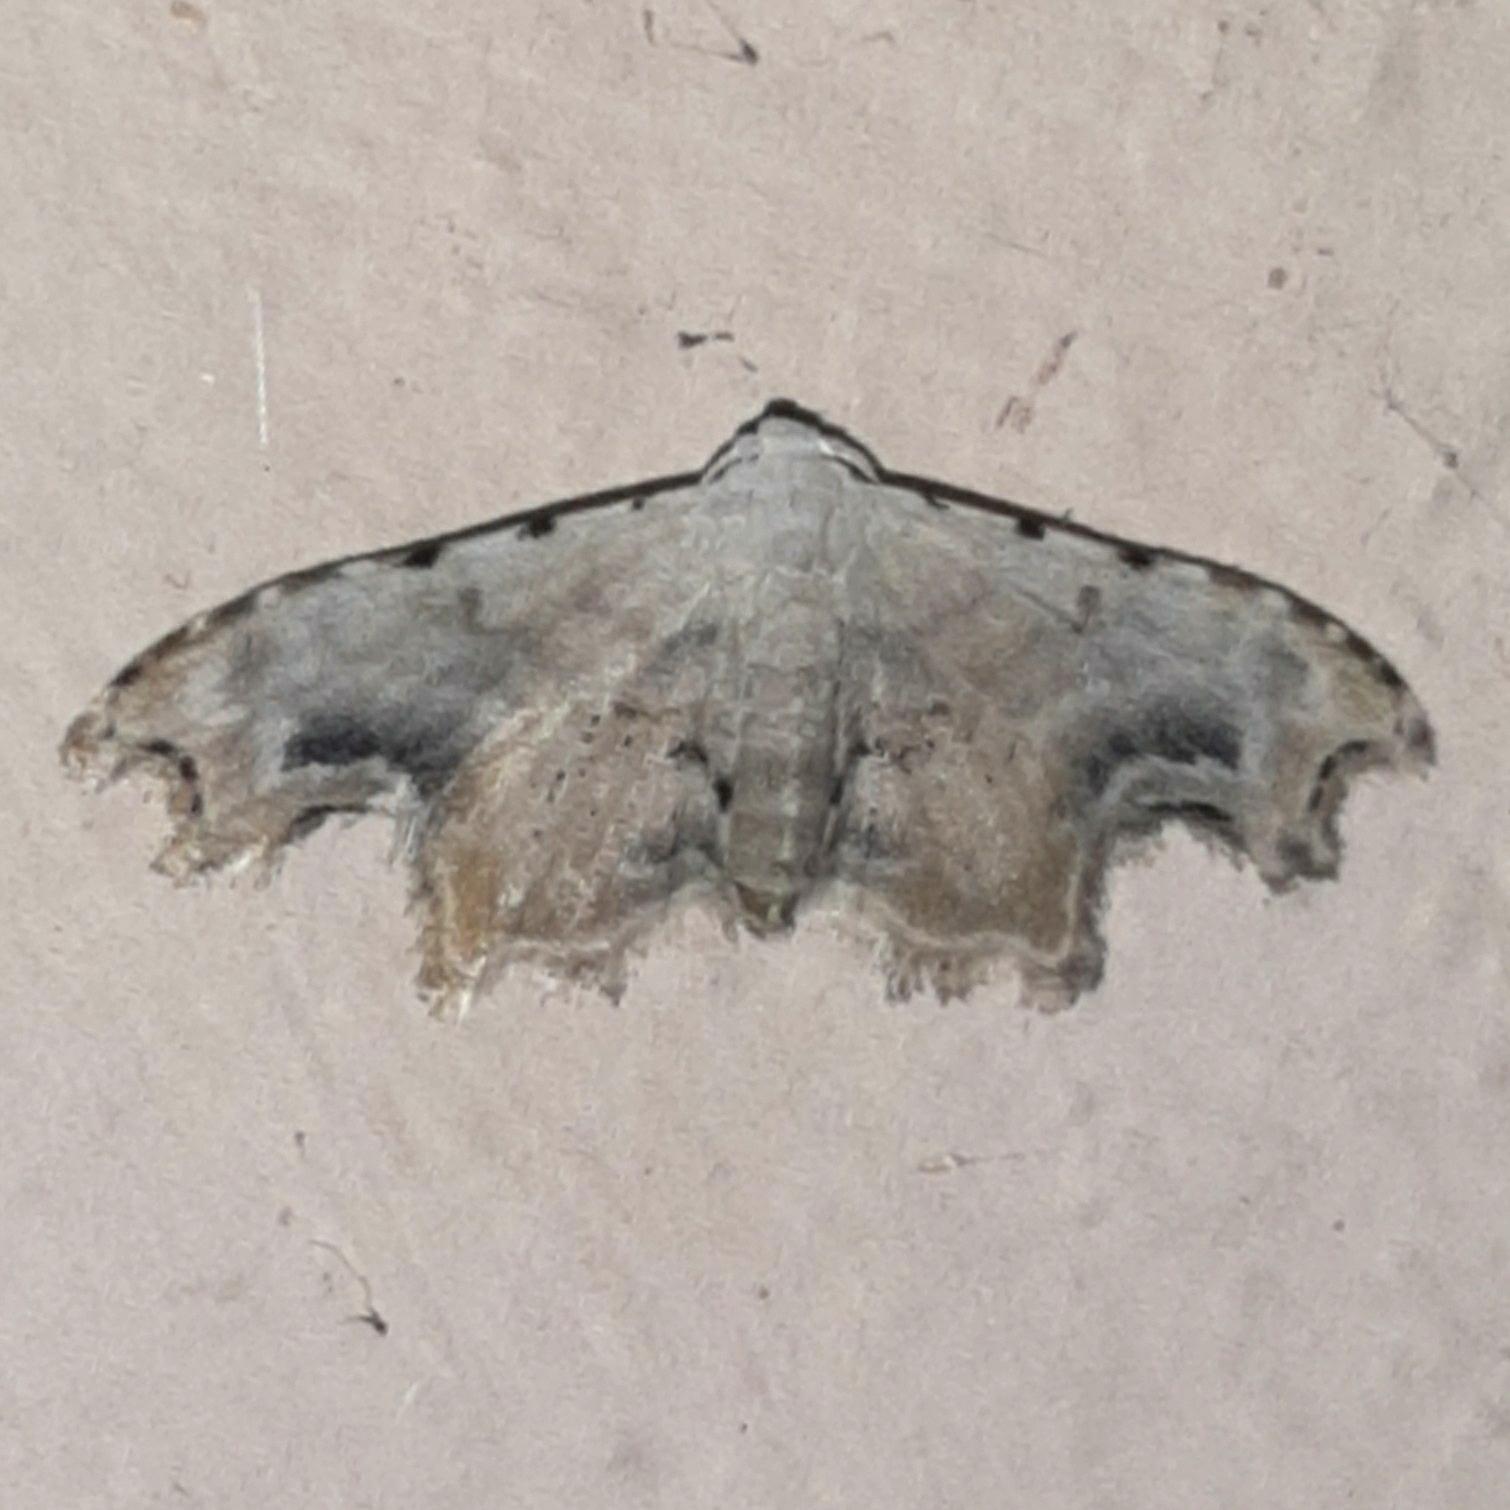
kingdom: Animalia
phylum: Arthropoda
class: Insecta
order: Lepidoptera
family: Erebidae
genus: Sigela
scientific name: Sigela vilhelmina
